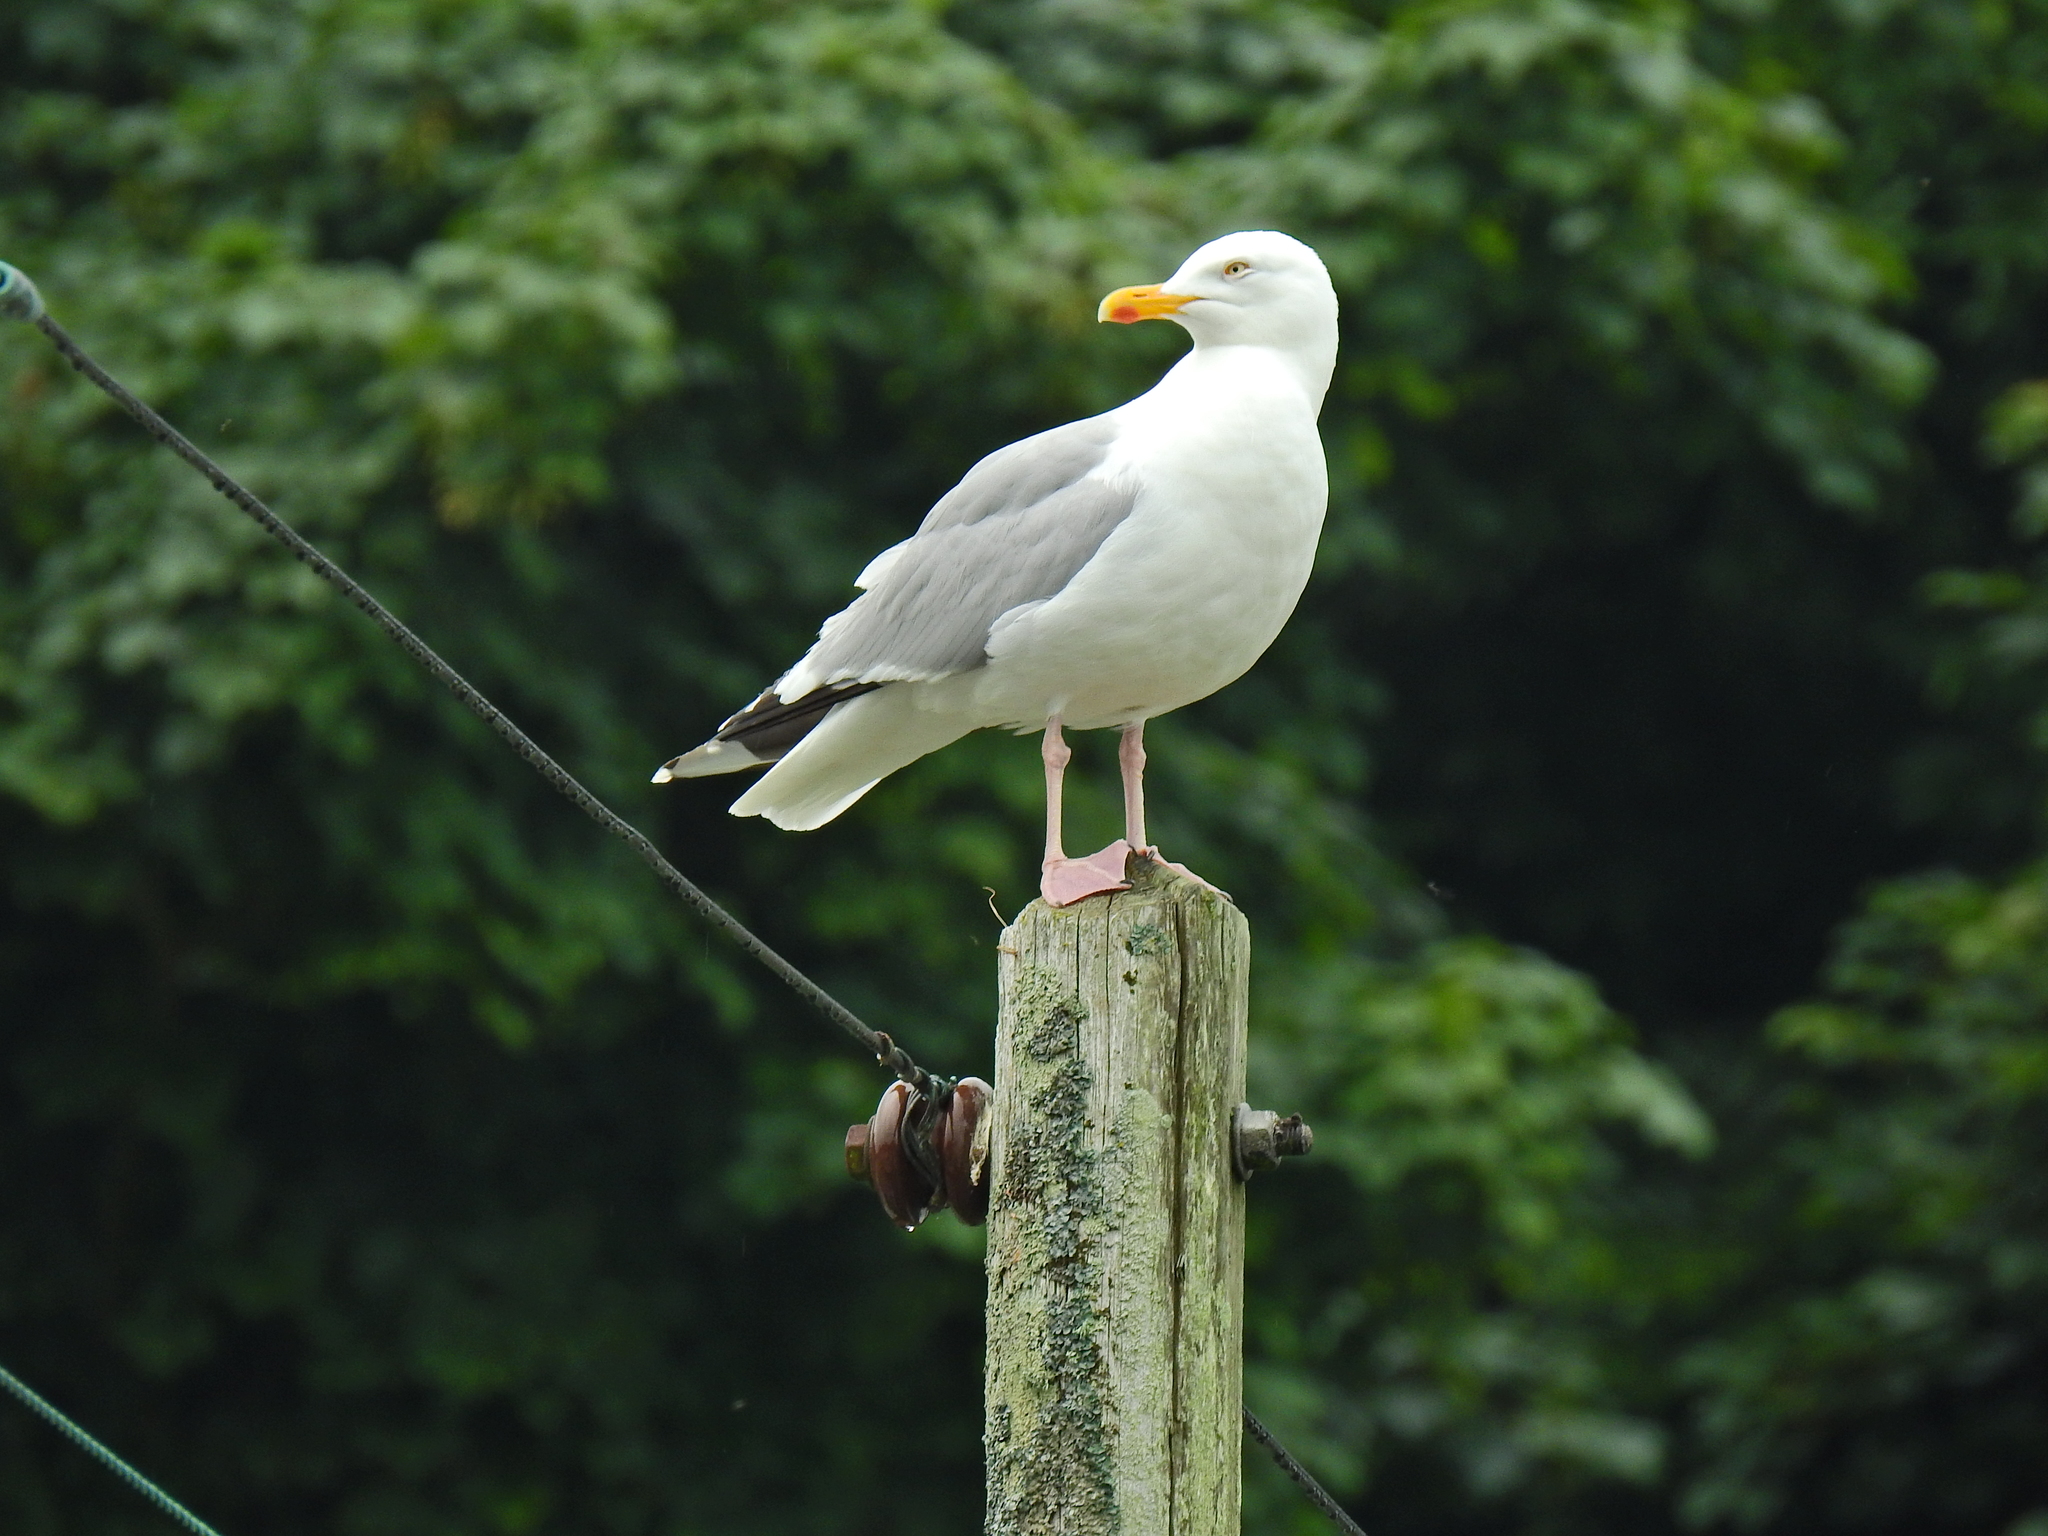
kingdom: Animalia
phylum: Chordata
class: Aves
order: Charadriiformes
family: Laridae
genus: Larus
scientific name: Larus argentatus
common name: Herring gull
